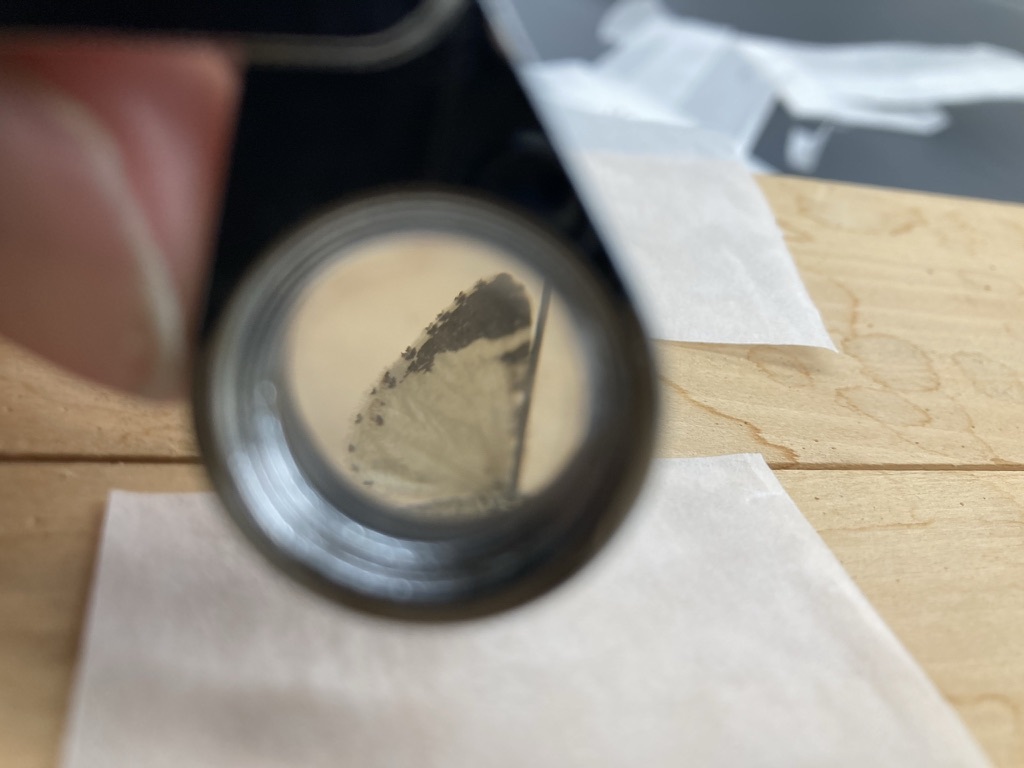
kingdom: Animalia
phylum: Arthropoda
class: Insecta
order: Lepidoptera
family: Geometridae
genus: Stamnodes
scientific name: Stamnodes topazata
